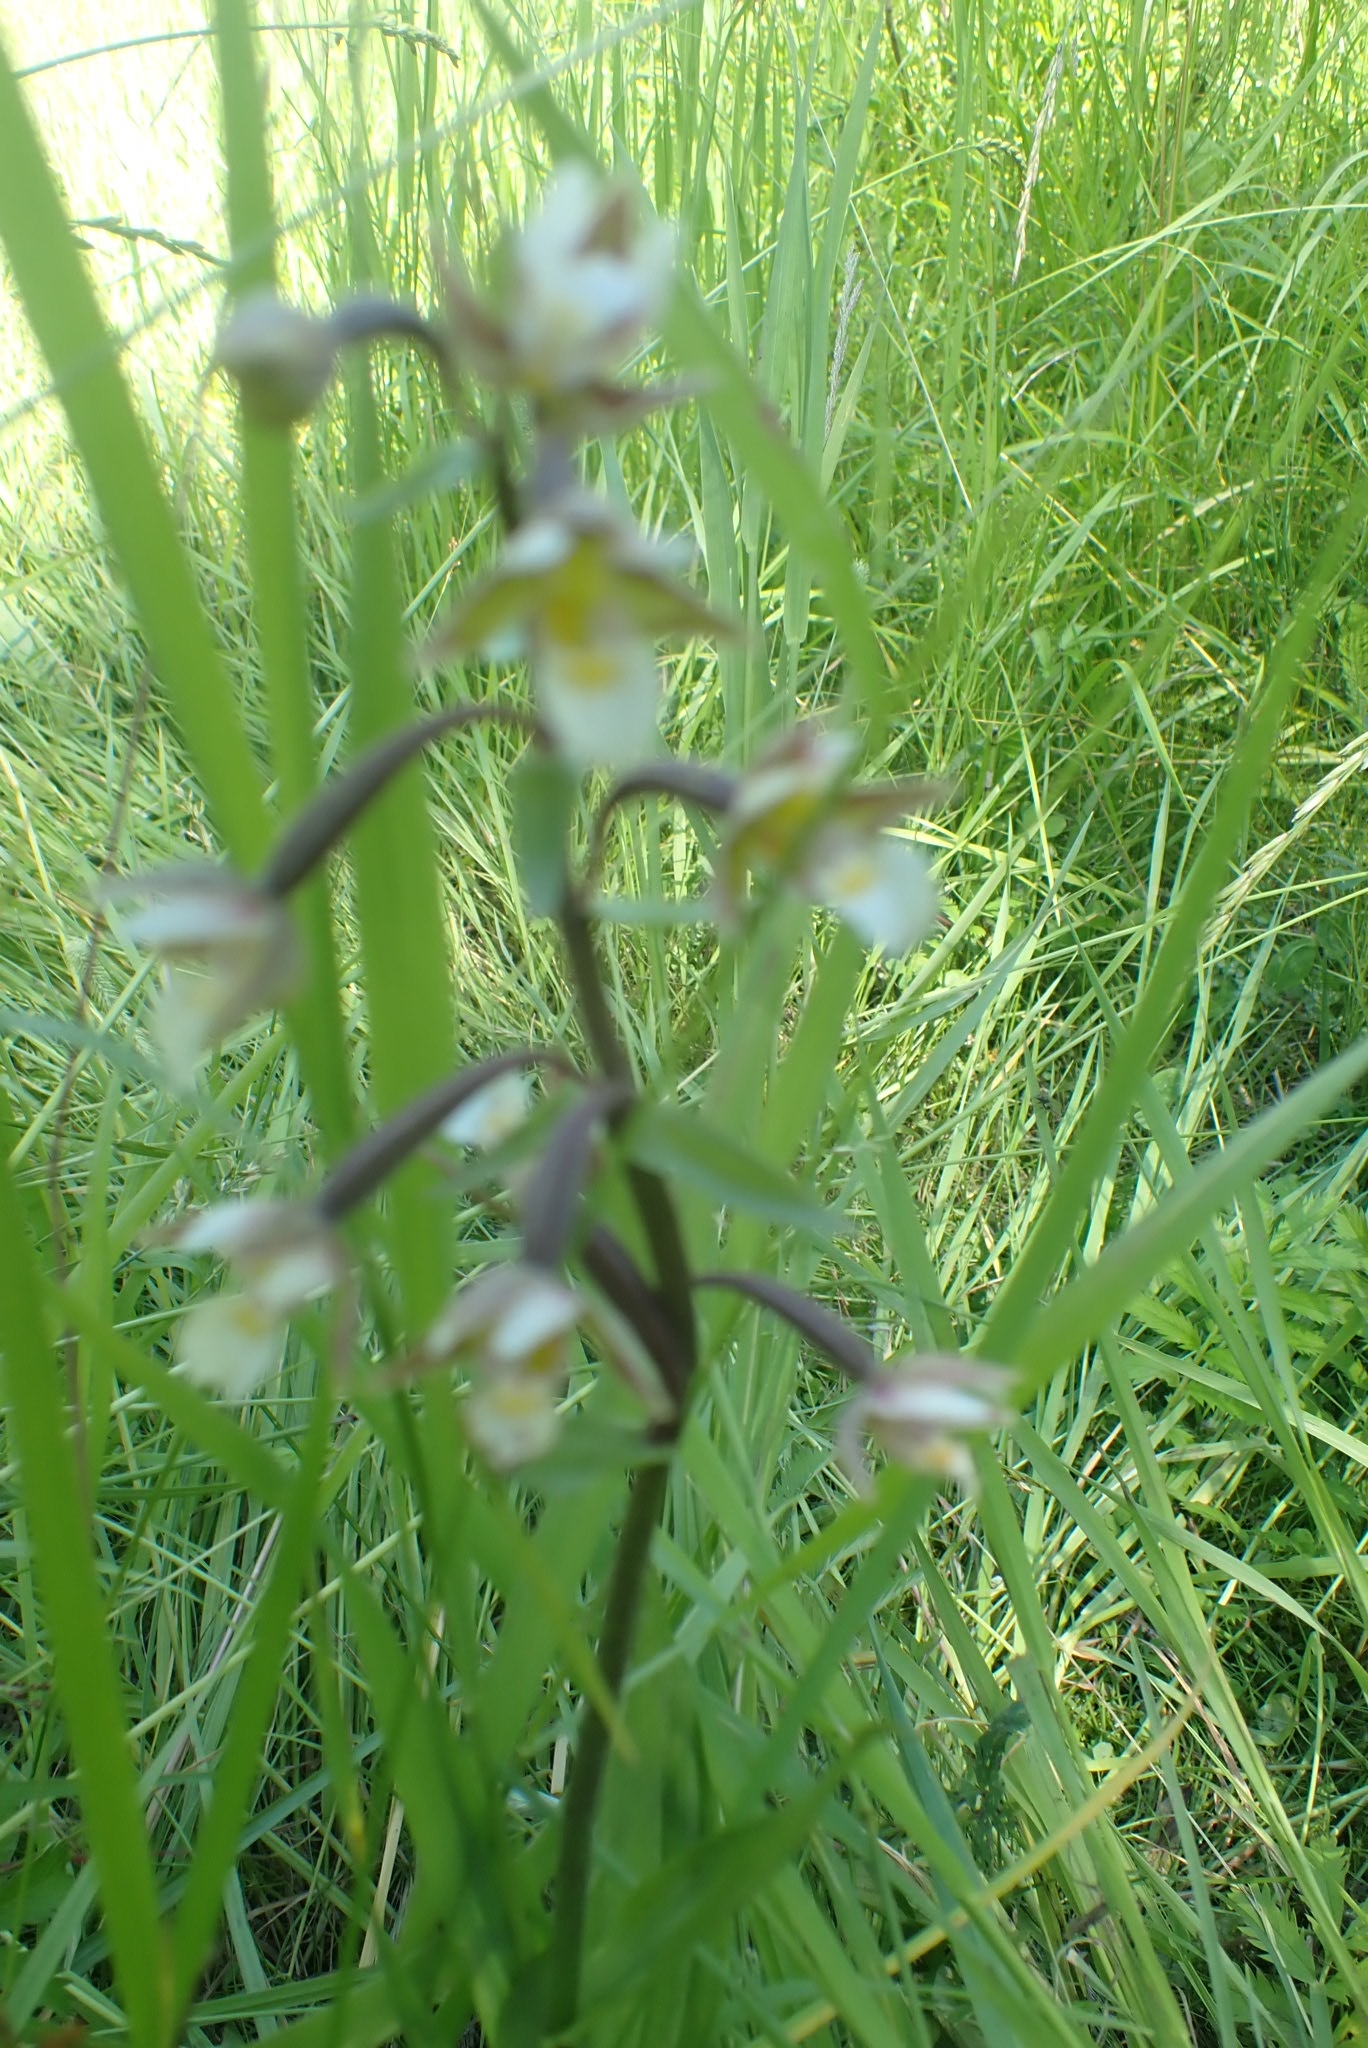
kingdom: Plantae
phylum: Tracheophyta
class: Liliopsida
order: Asparagales
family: Orchidaceae
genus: Epipactis
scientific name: Epipactis palustris
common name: Marsh helleborine
